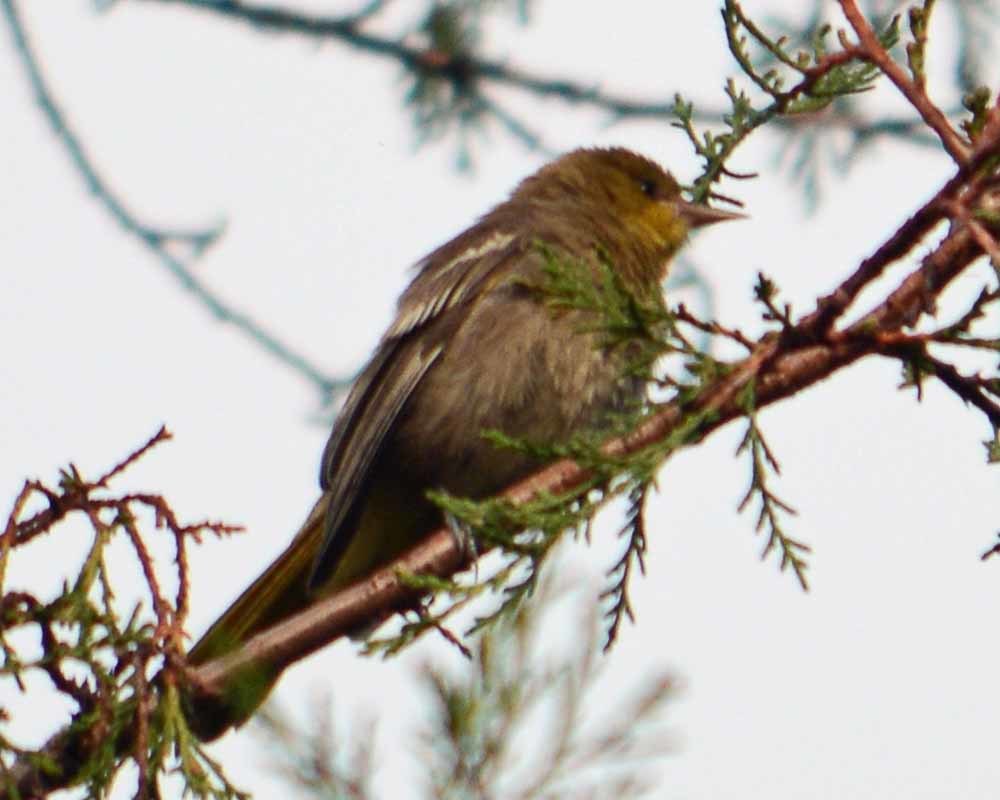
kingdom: Animalia
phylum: Chordata
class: Aves
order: Passeriformes
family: Icteridae
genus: Icterus
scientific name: Icterus abeillei
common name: Black-backed oriole
